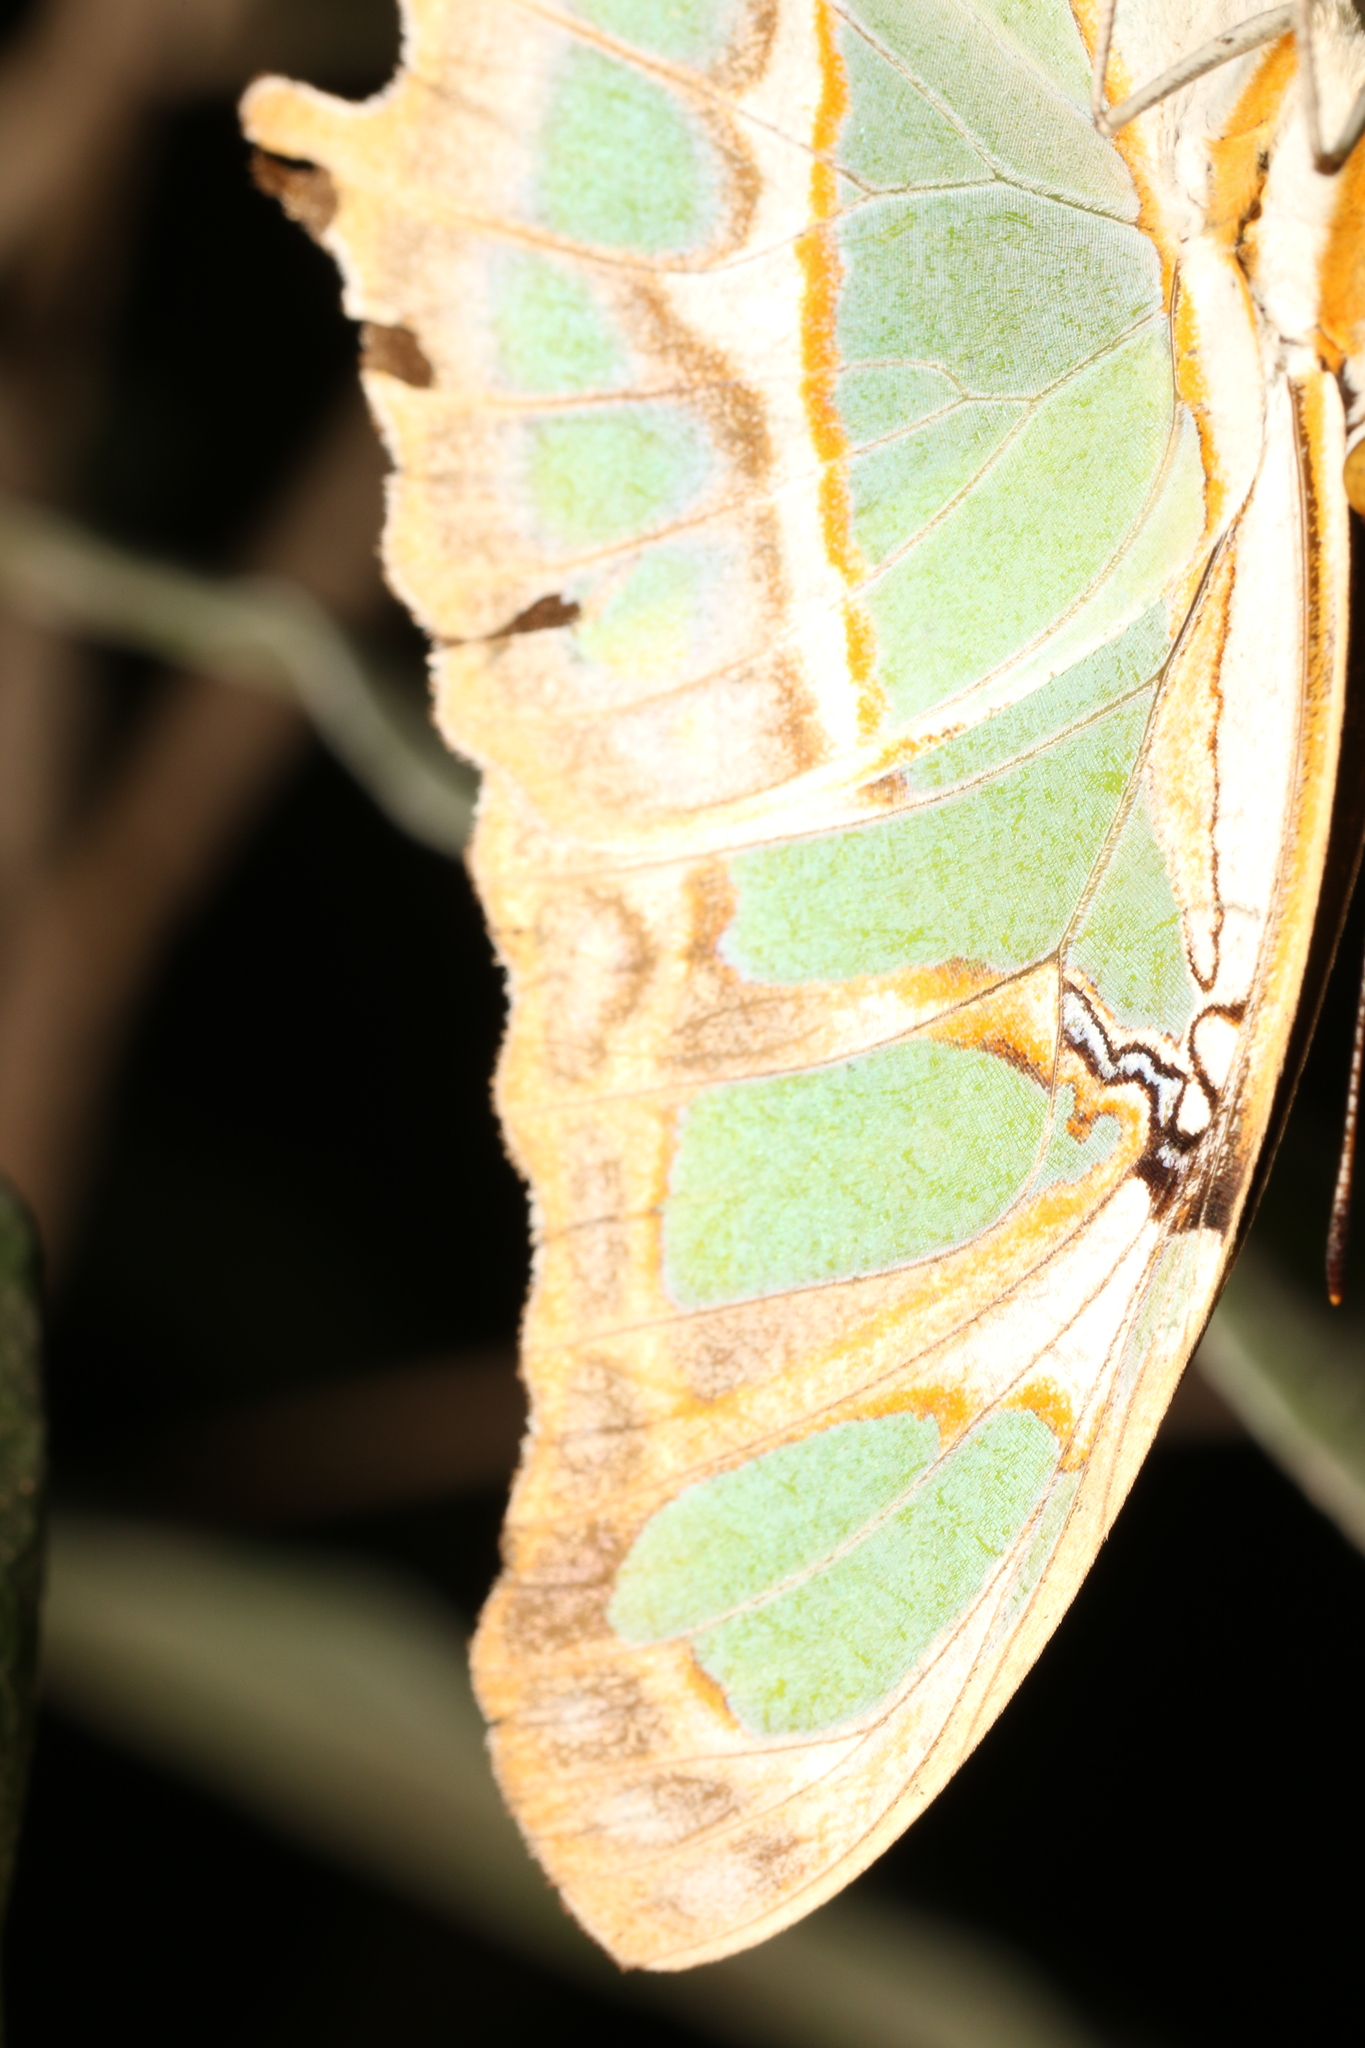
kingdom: Animalia
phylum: Arthropoda
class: Insecta
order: Lepidoptera
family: Nymphalidae
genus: Siproeta
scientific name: Siproeta stelenes
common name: Malachite
